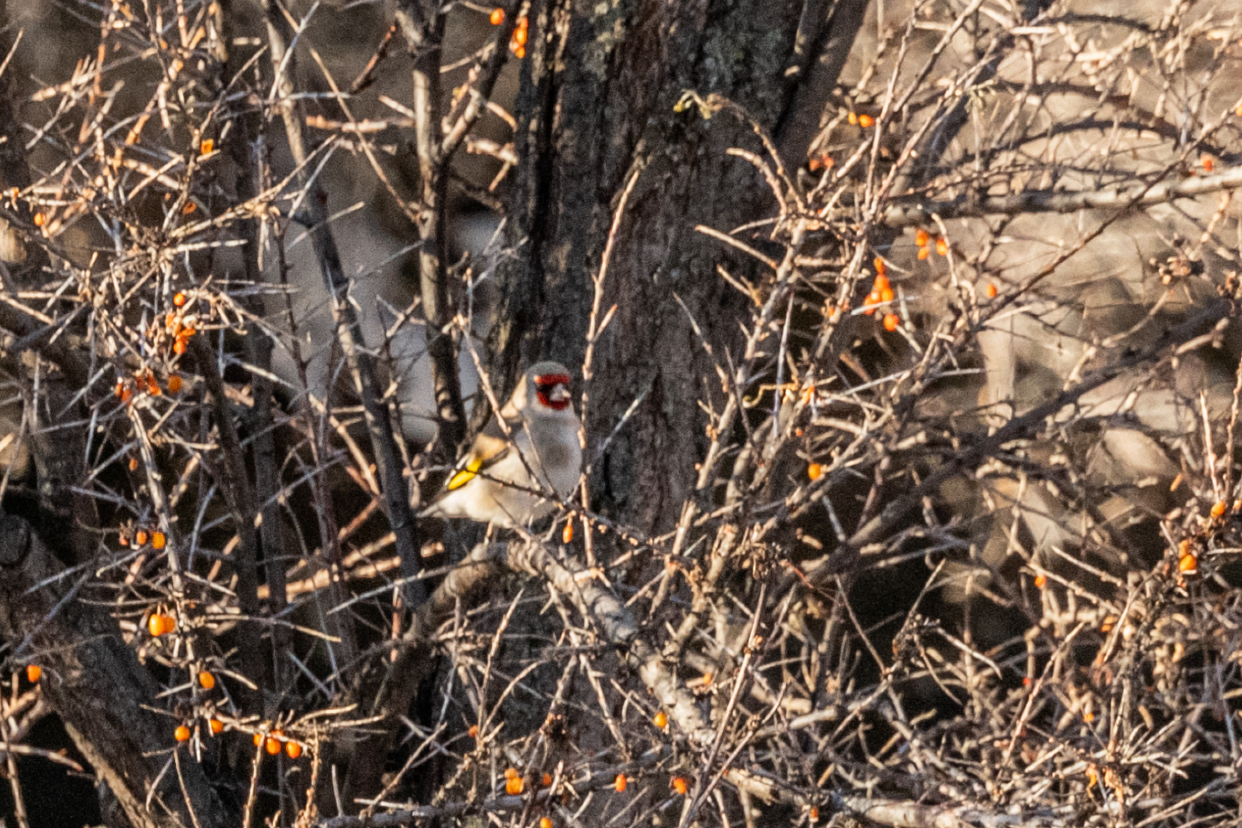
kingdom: Animalia
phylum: Chordata
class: Aves
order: Passeriformes
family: Fringillidae
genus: Carduelis
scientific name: Carduelis carduelis
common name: European goldfinch
